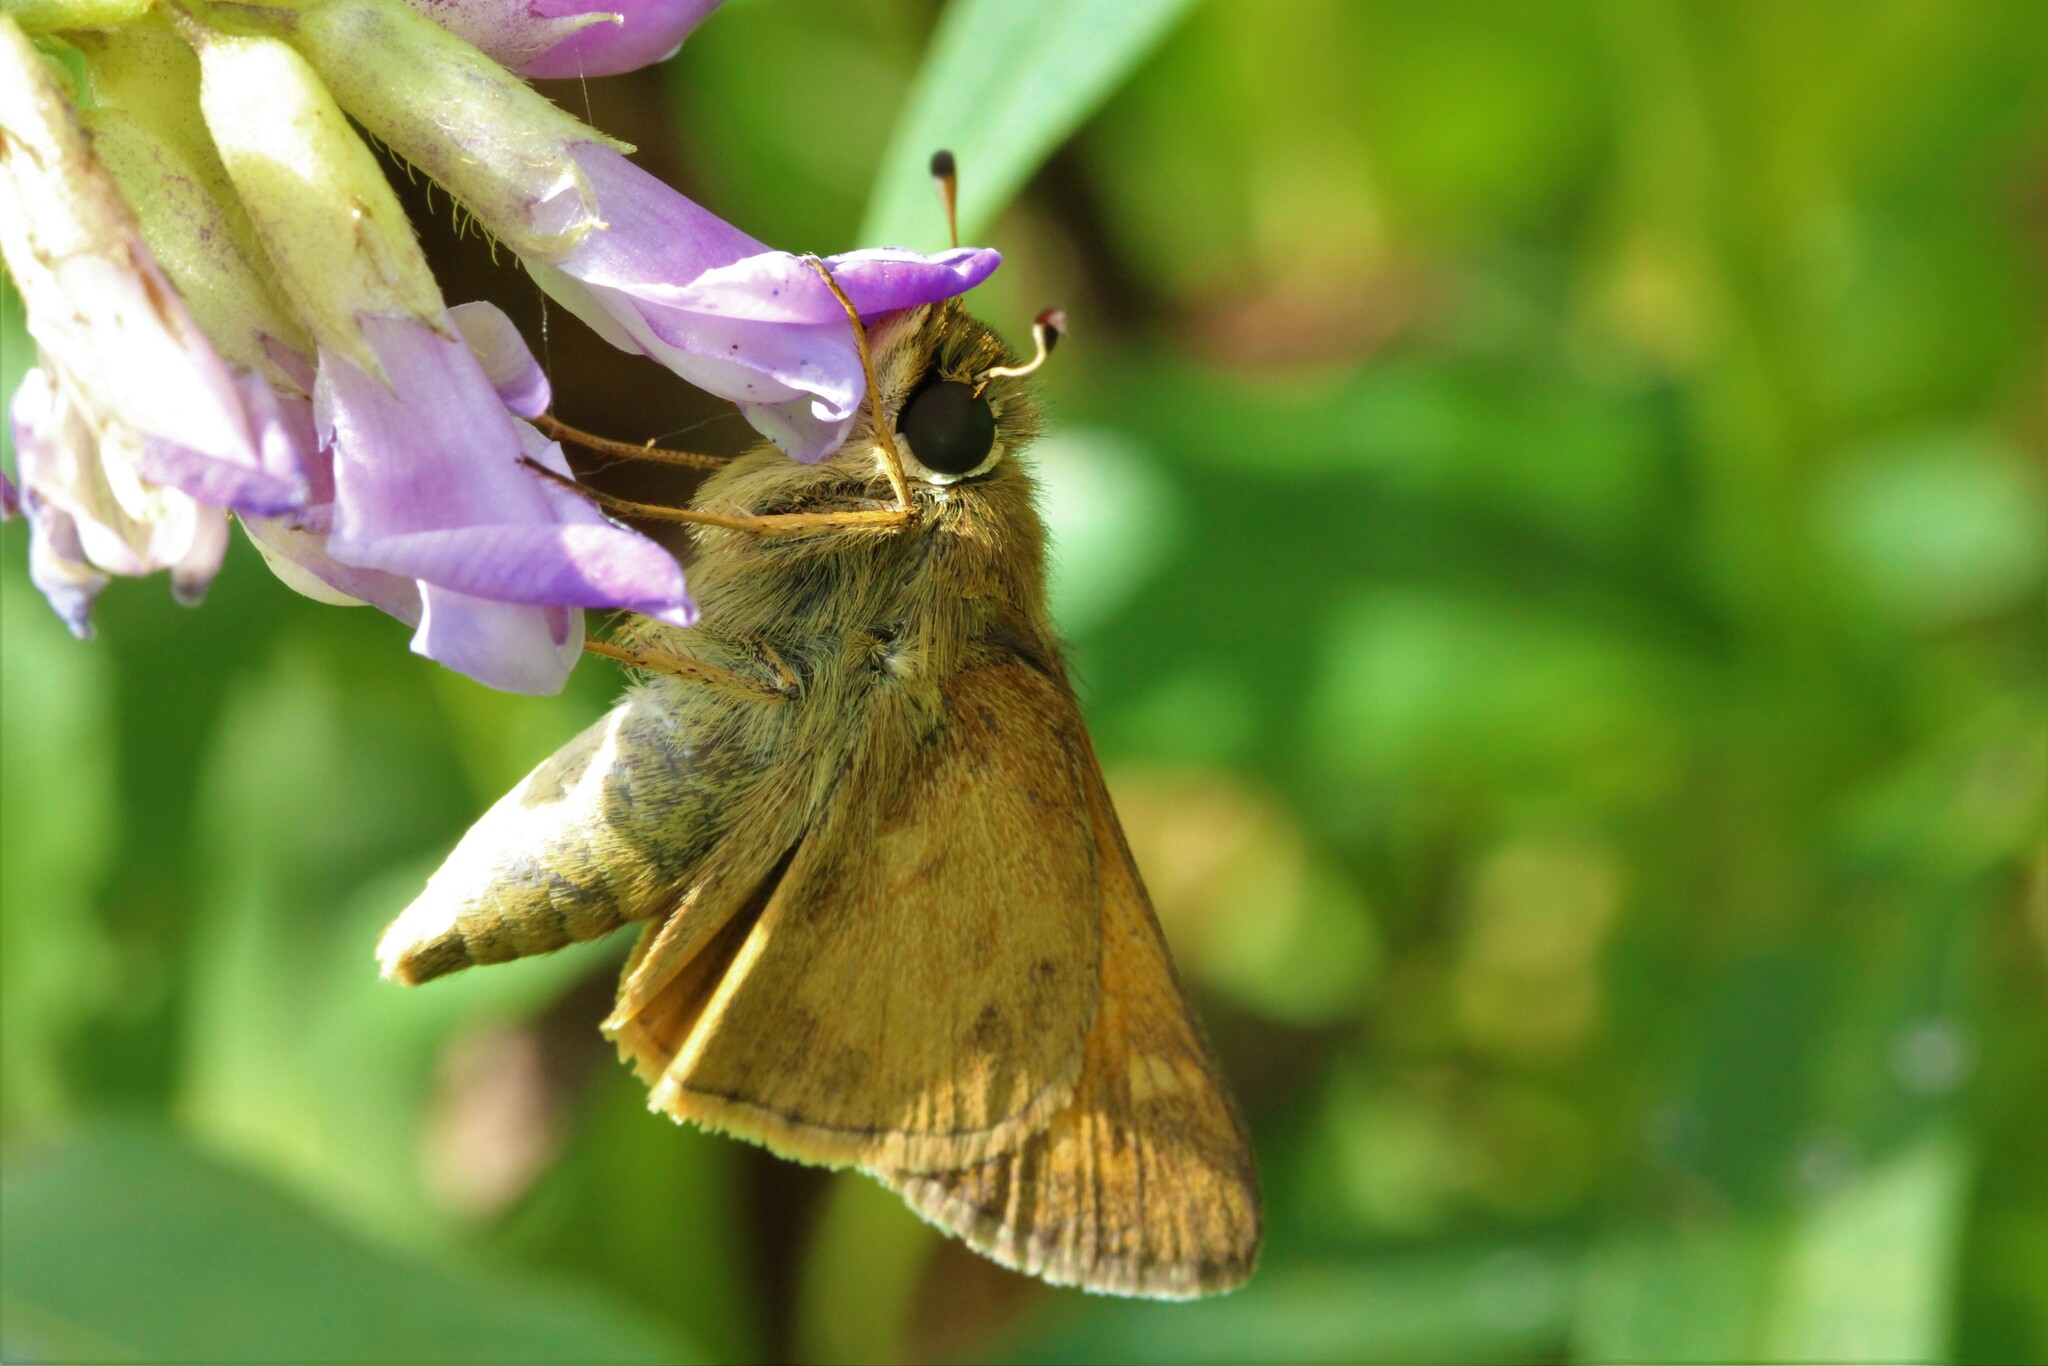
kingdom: Animalia
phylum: Arthropoda
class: Insecta
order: Lepidoptera
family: Hesperiidae
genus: Atalopedes
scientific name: Atalopedes
